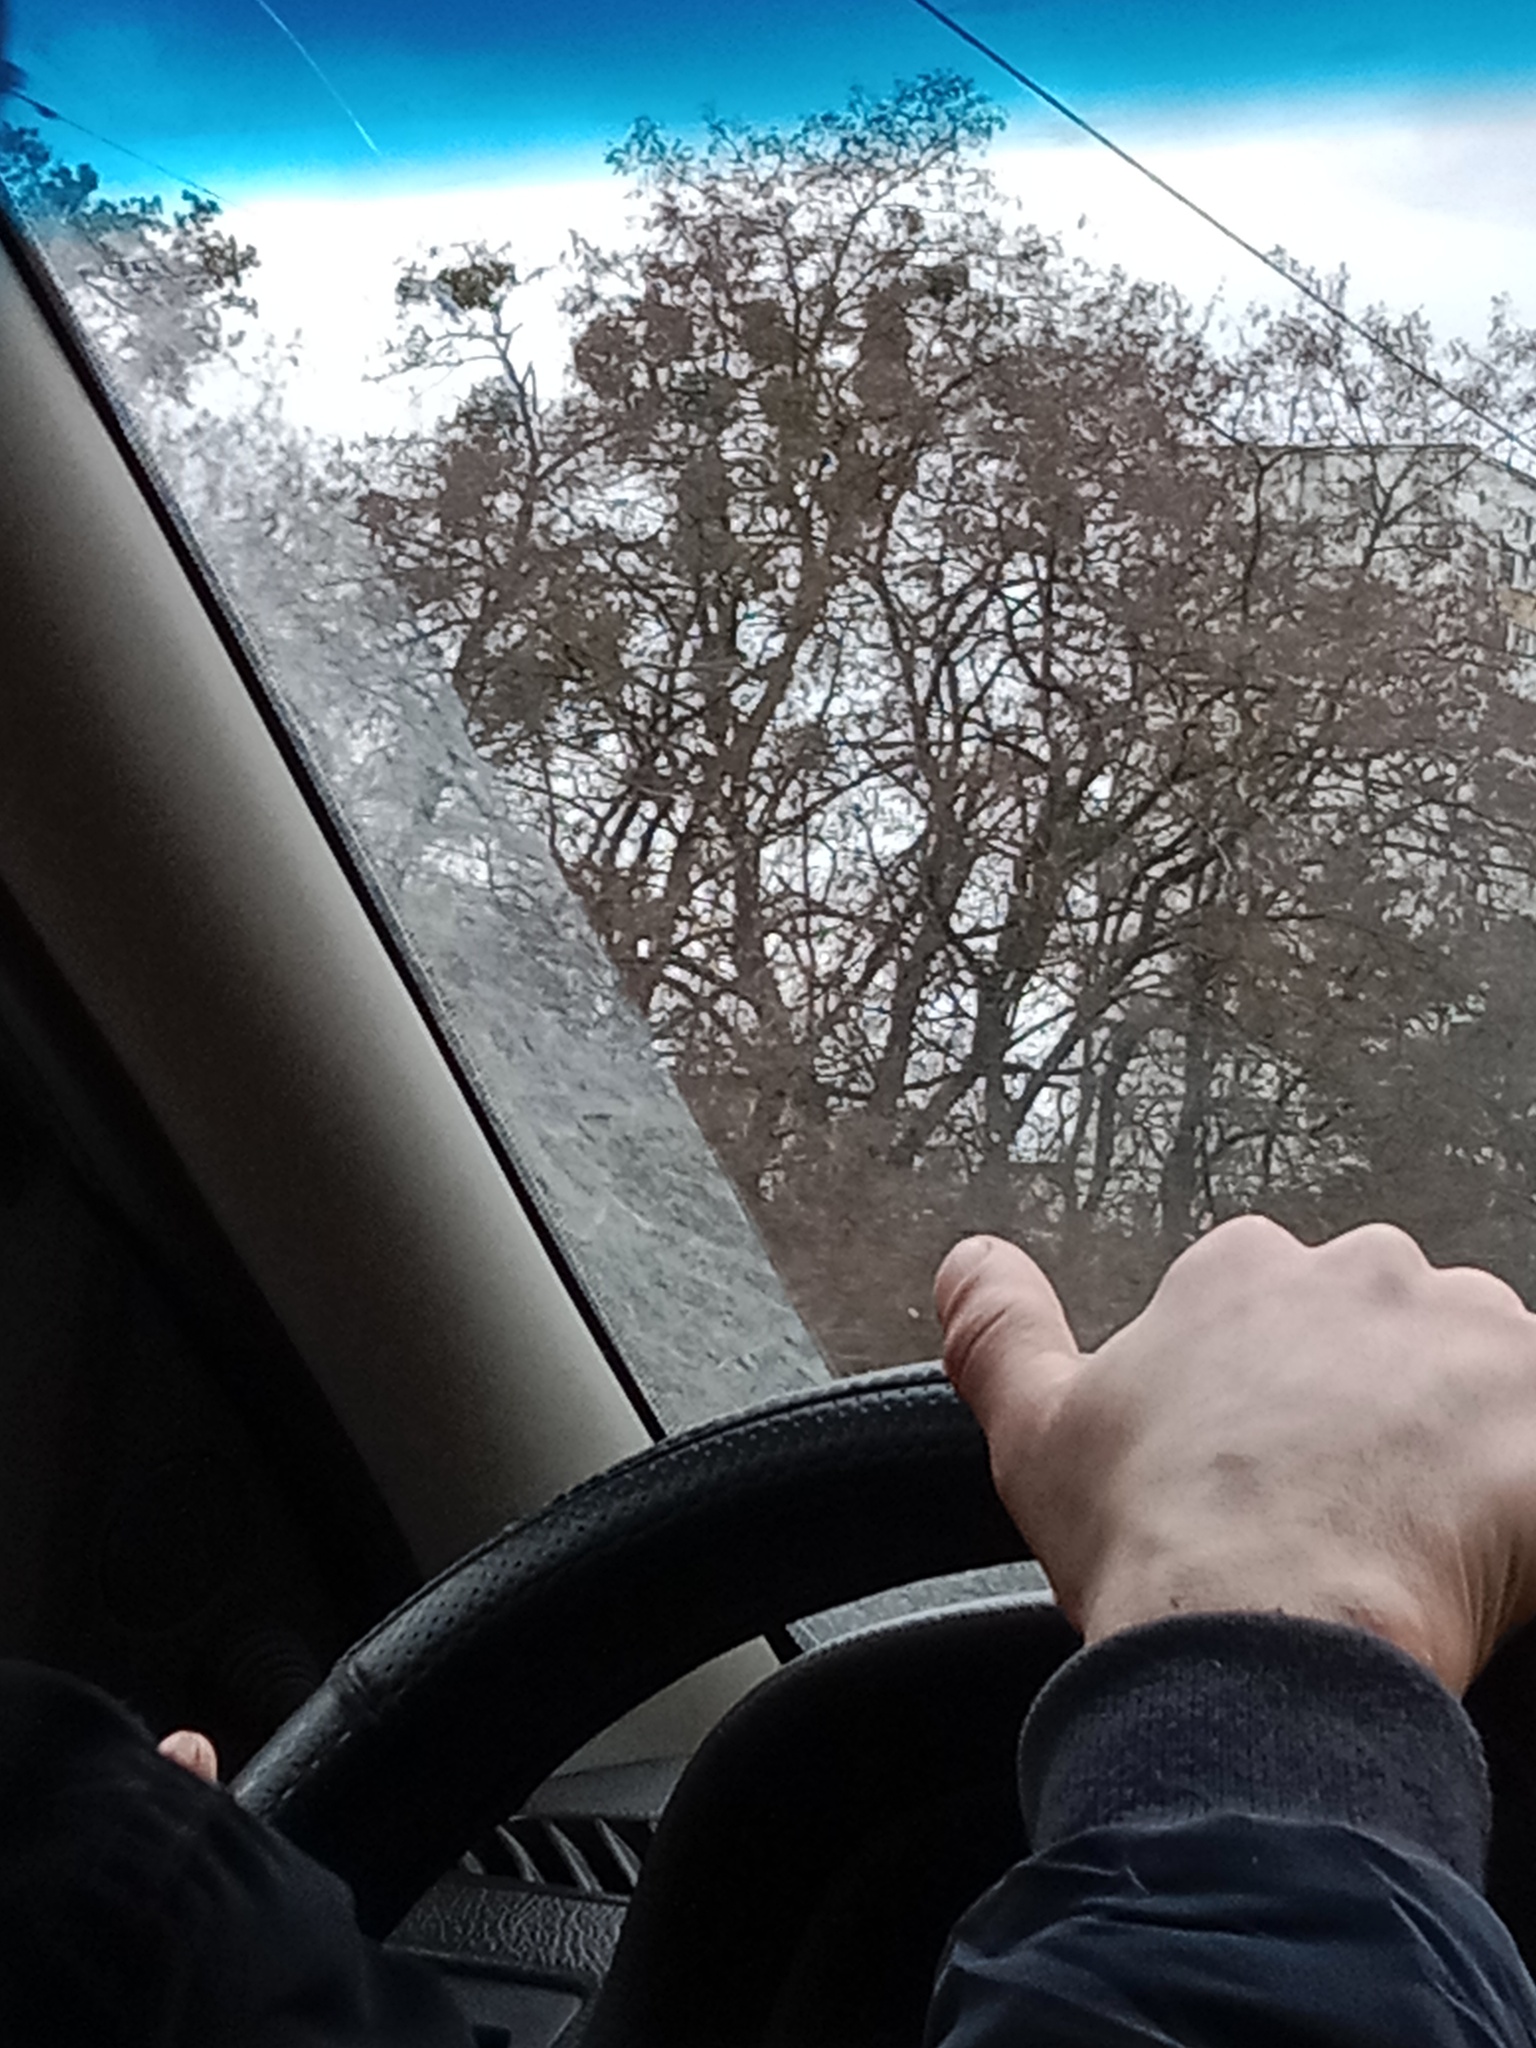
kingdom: Plantae
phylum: Tracheophyta
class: Magnoliopsida
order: Santalales
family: Viscaceae
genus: Viscum
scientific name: Viscum album
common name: Mistletoe
